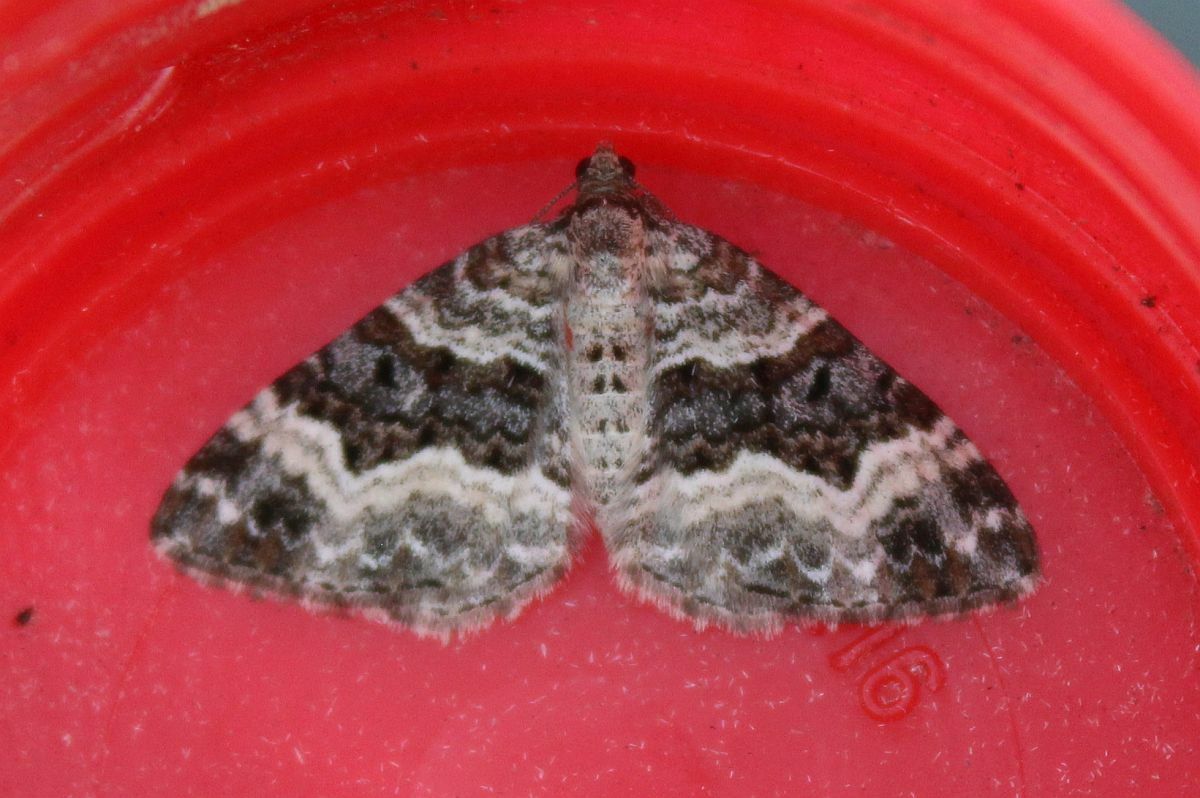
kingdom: Animalia
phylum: Arthropoda
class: Insecta
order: Lepidoptera
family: Geometridae
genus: Epirrhoe
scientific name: Epirrhoe alternata
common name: Common carpet
